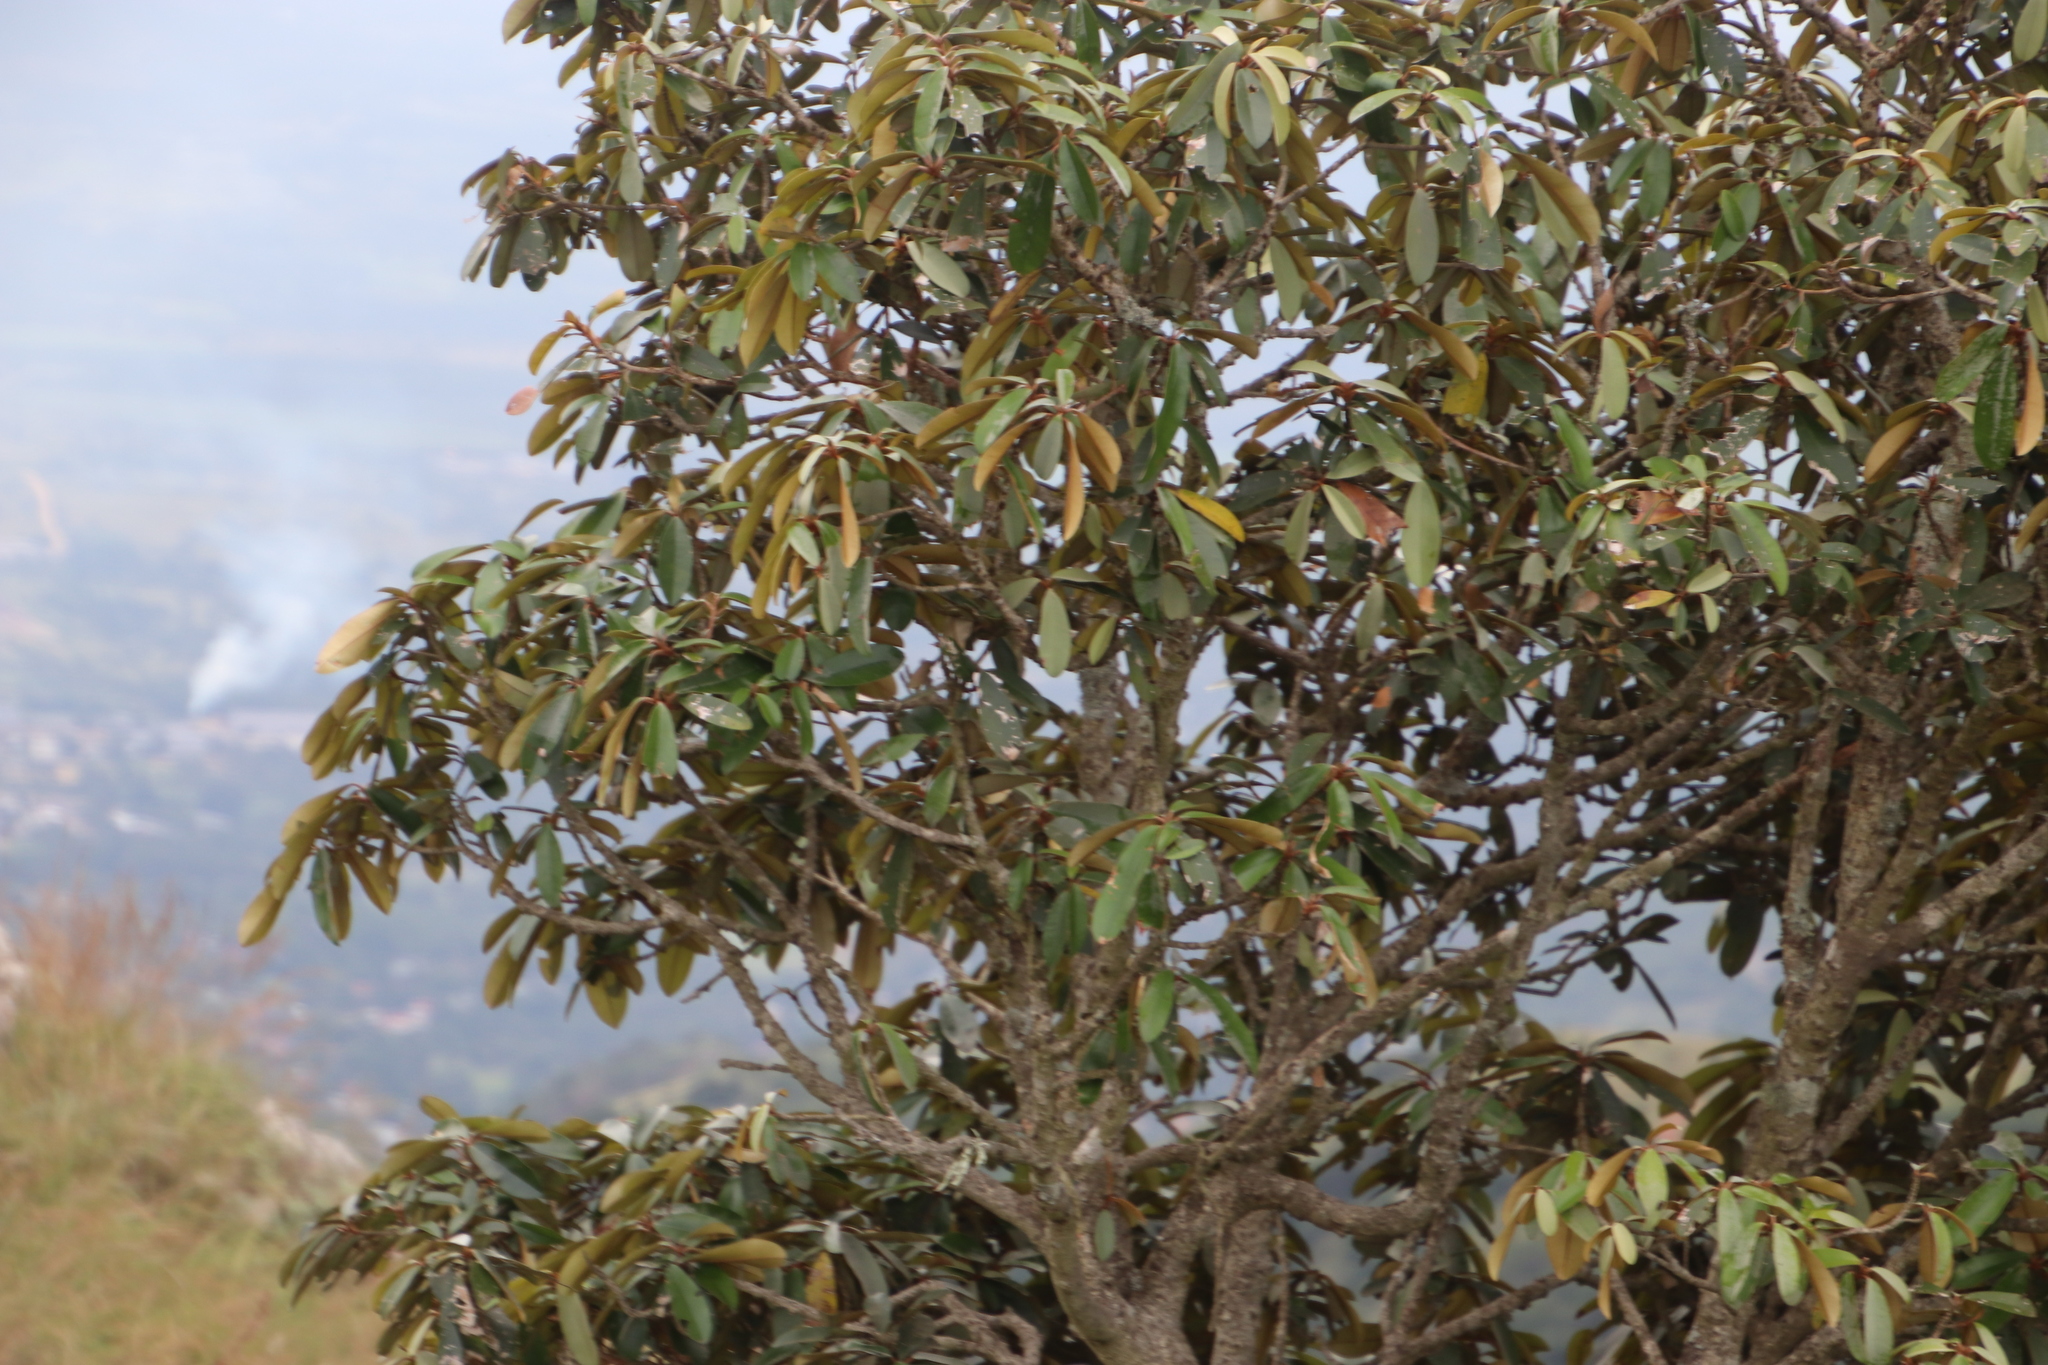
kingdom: Plantae
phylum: Tracheophyta
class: Magnoliopsida
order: Ericales
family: Sapotaceae
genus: Englerophytum
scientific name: Englerophytum magalismontanum
